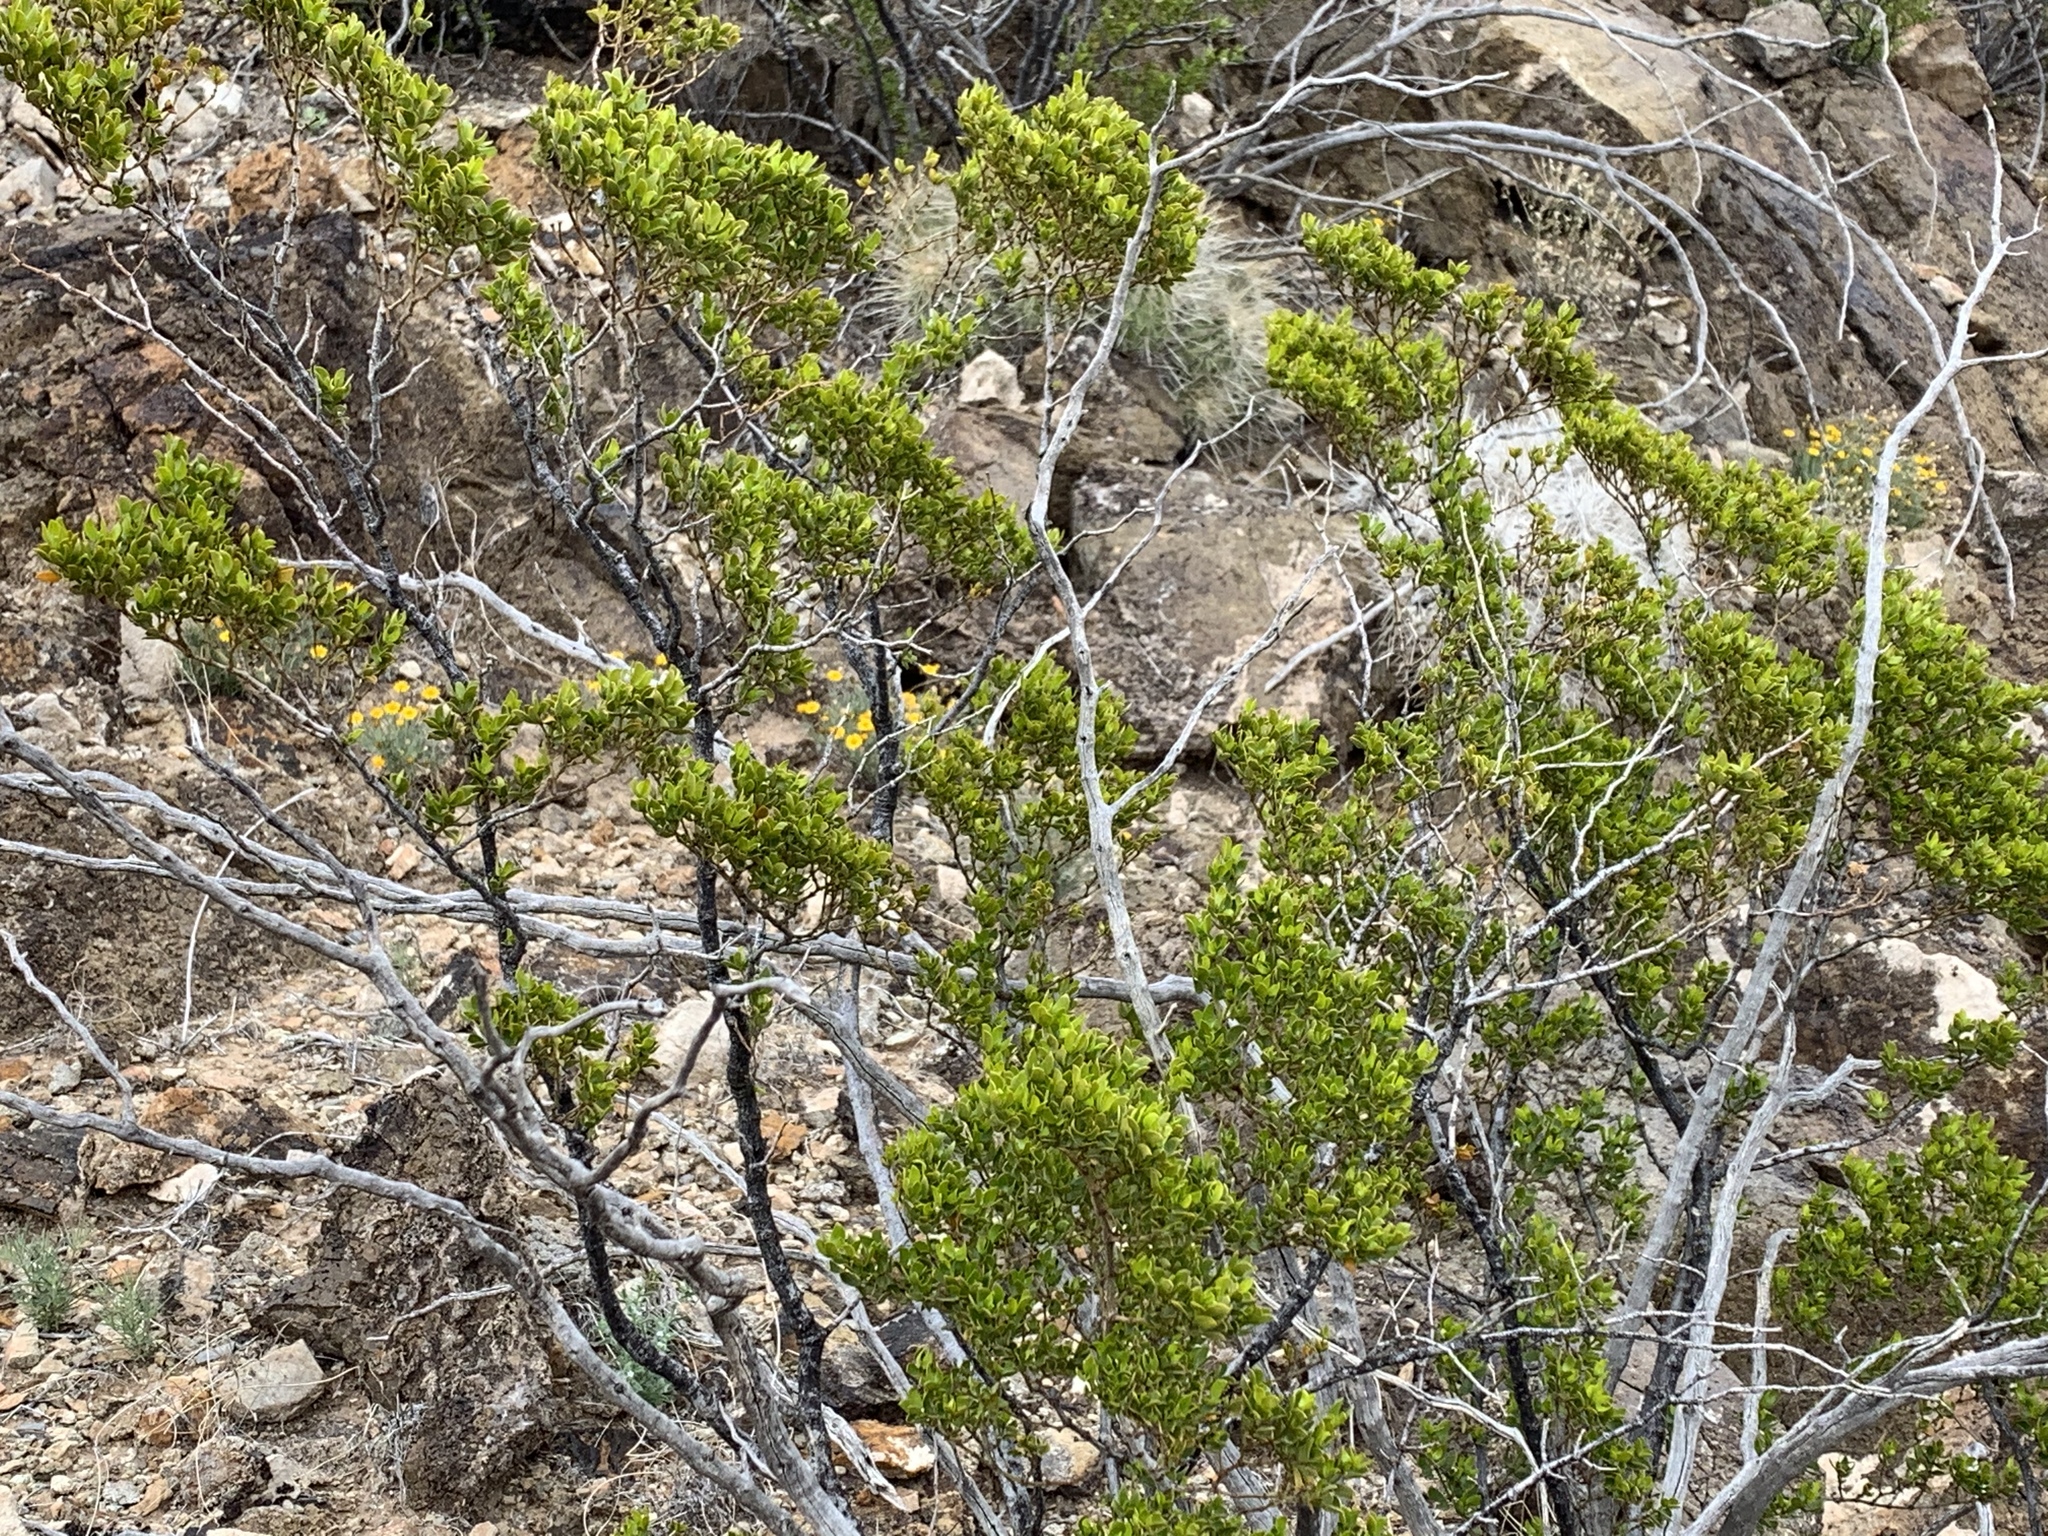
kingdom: Plantae
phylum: Tracheophyta
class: Magnoliopsida
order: Zygophyllales
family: Zygophyllaceae
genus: Larrea
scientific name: Larrea tridentata
